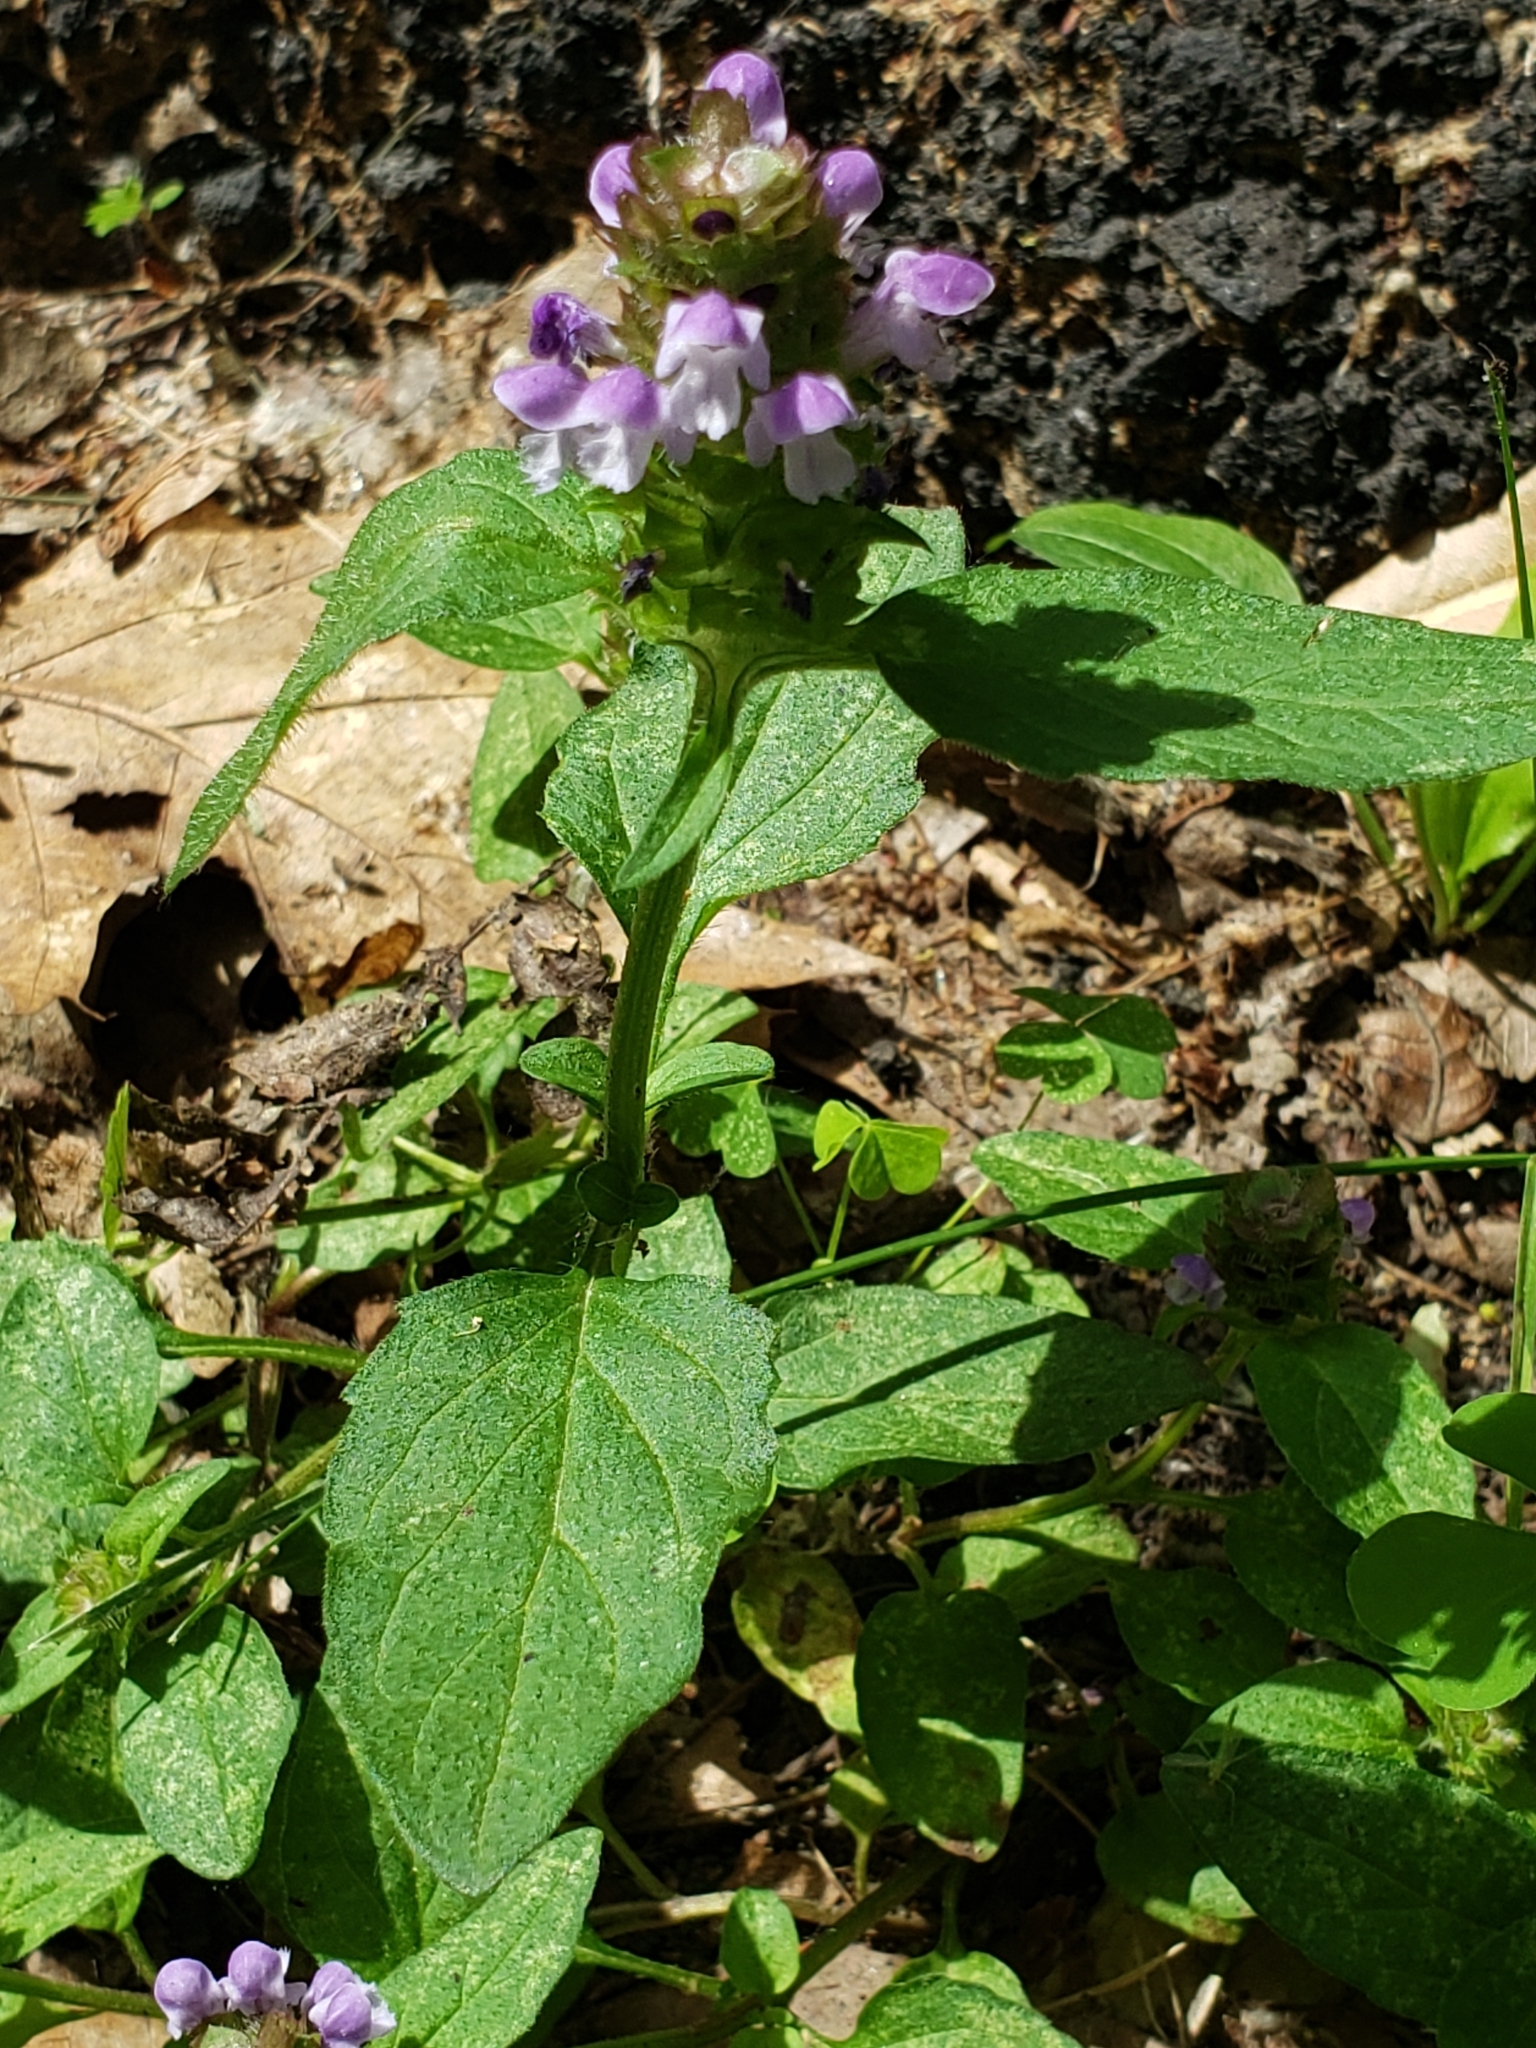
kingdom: Plantae
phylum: Tracheophyta
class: Magnoliopsida
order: Lamiales
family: Lamiaceae
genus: Prunella
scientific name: Prunella vulgaris
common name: Heal-all
